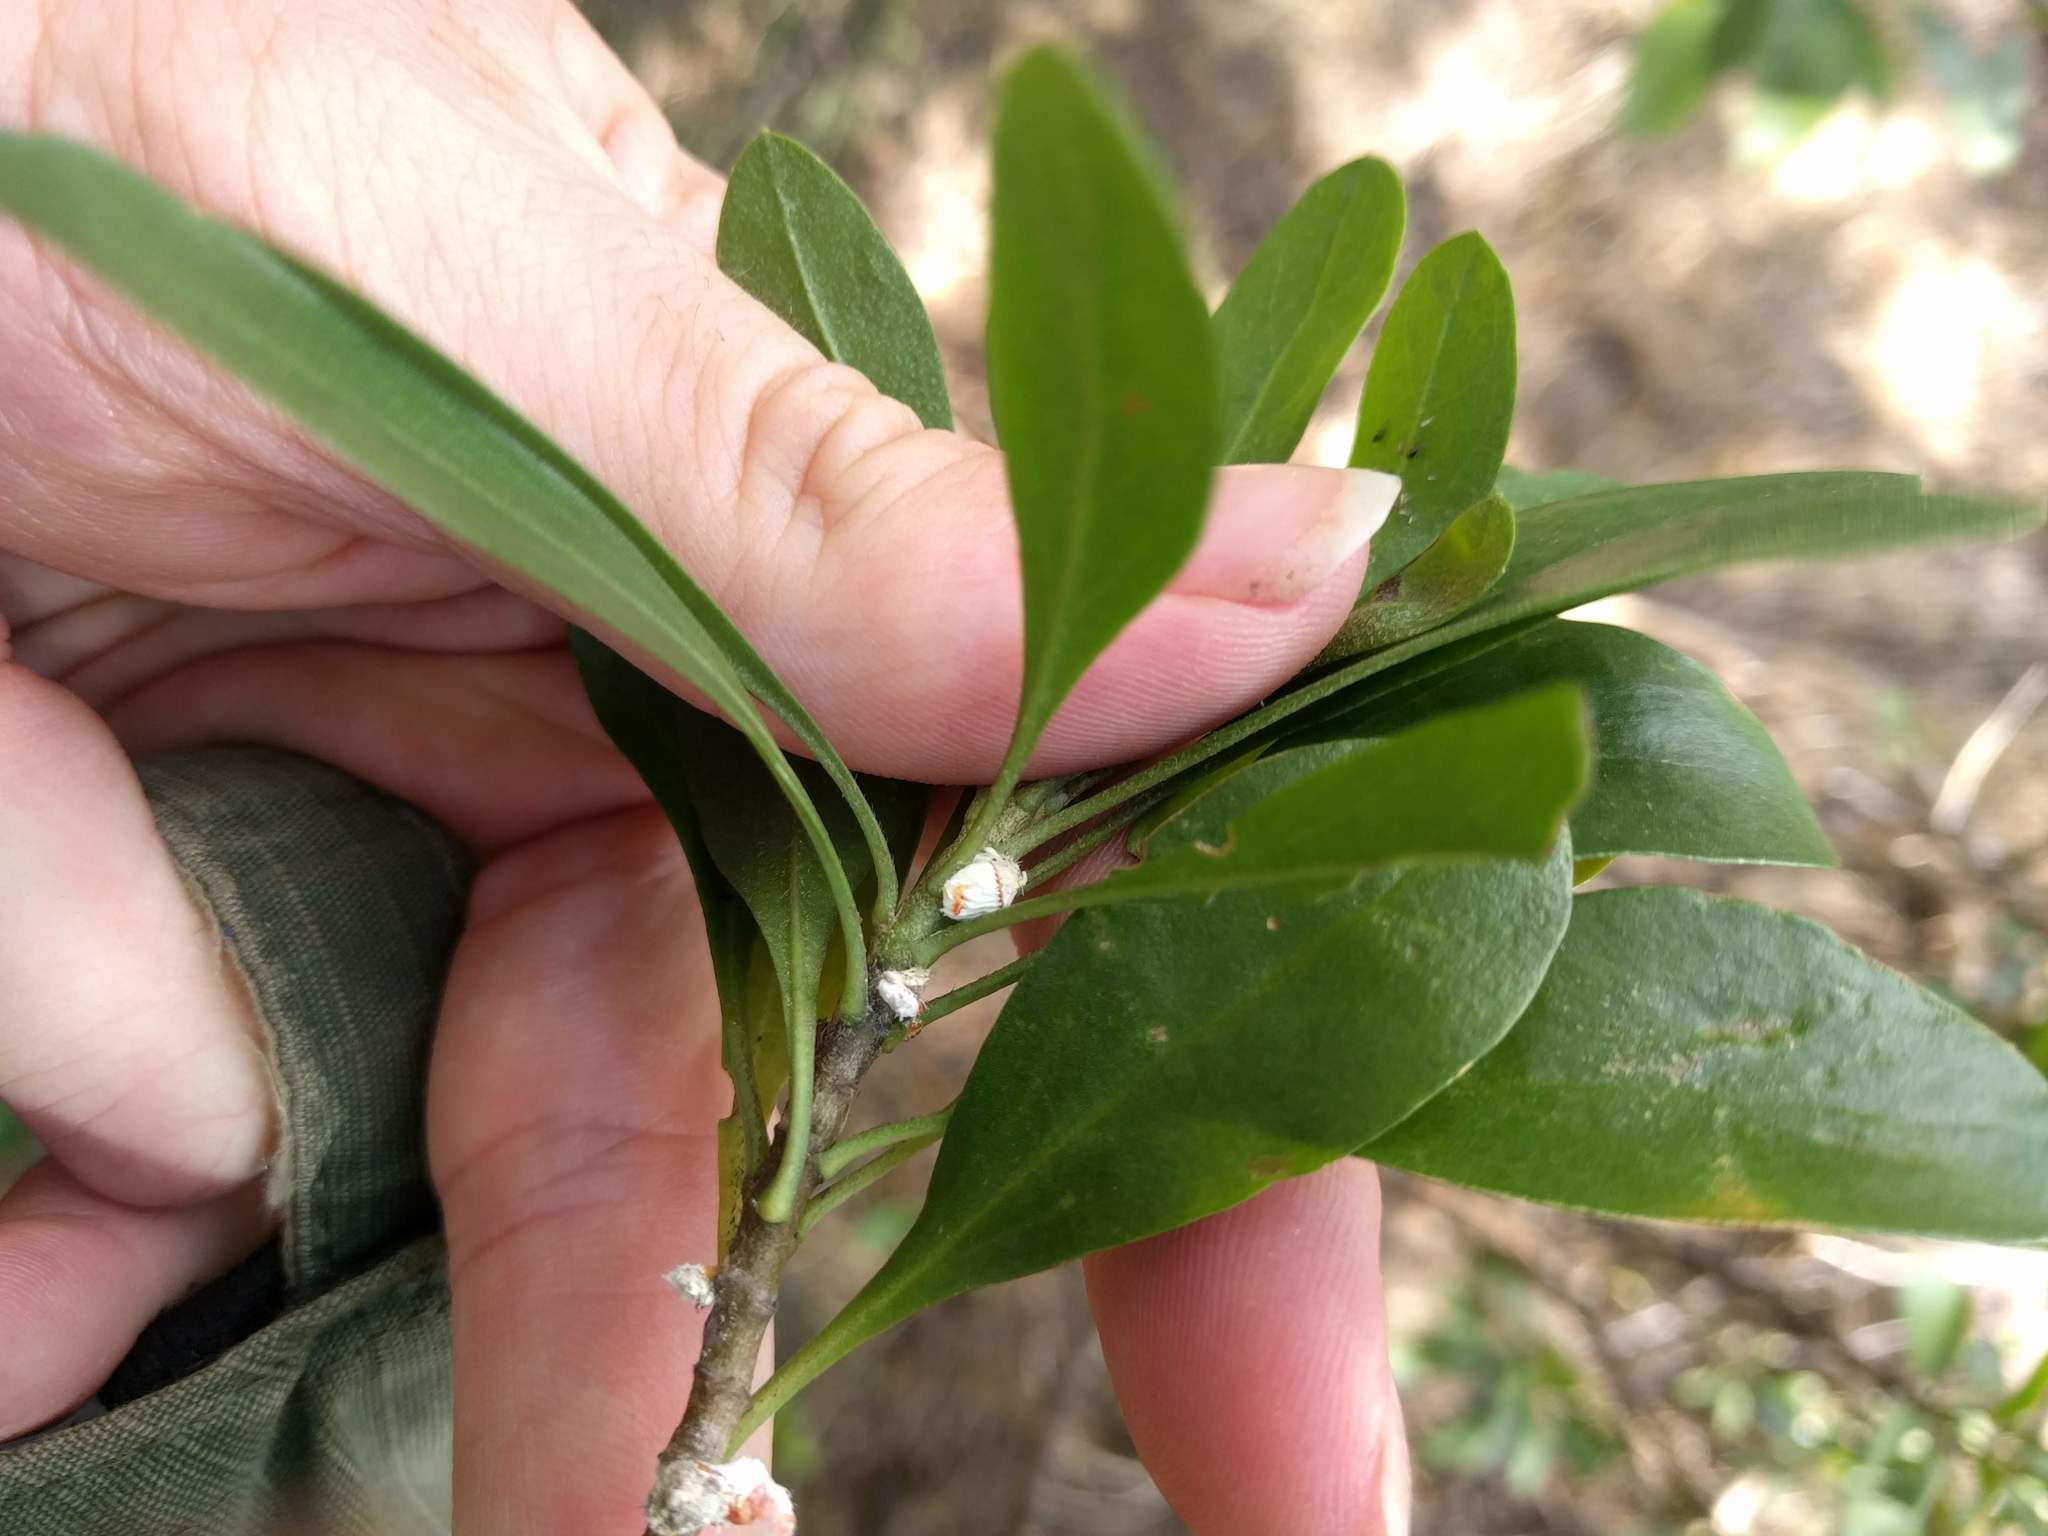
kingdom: Animalia
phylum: Arthropoda
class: Insecta
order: Hemiptera
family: Margarodidae
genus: Icerya
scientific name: Icerya purchasi
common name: Cottony cushion scale
